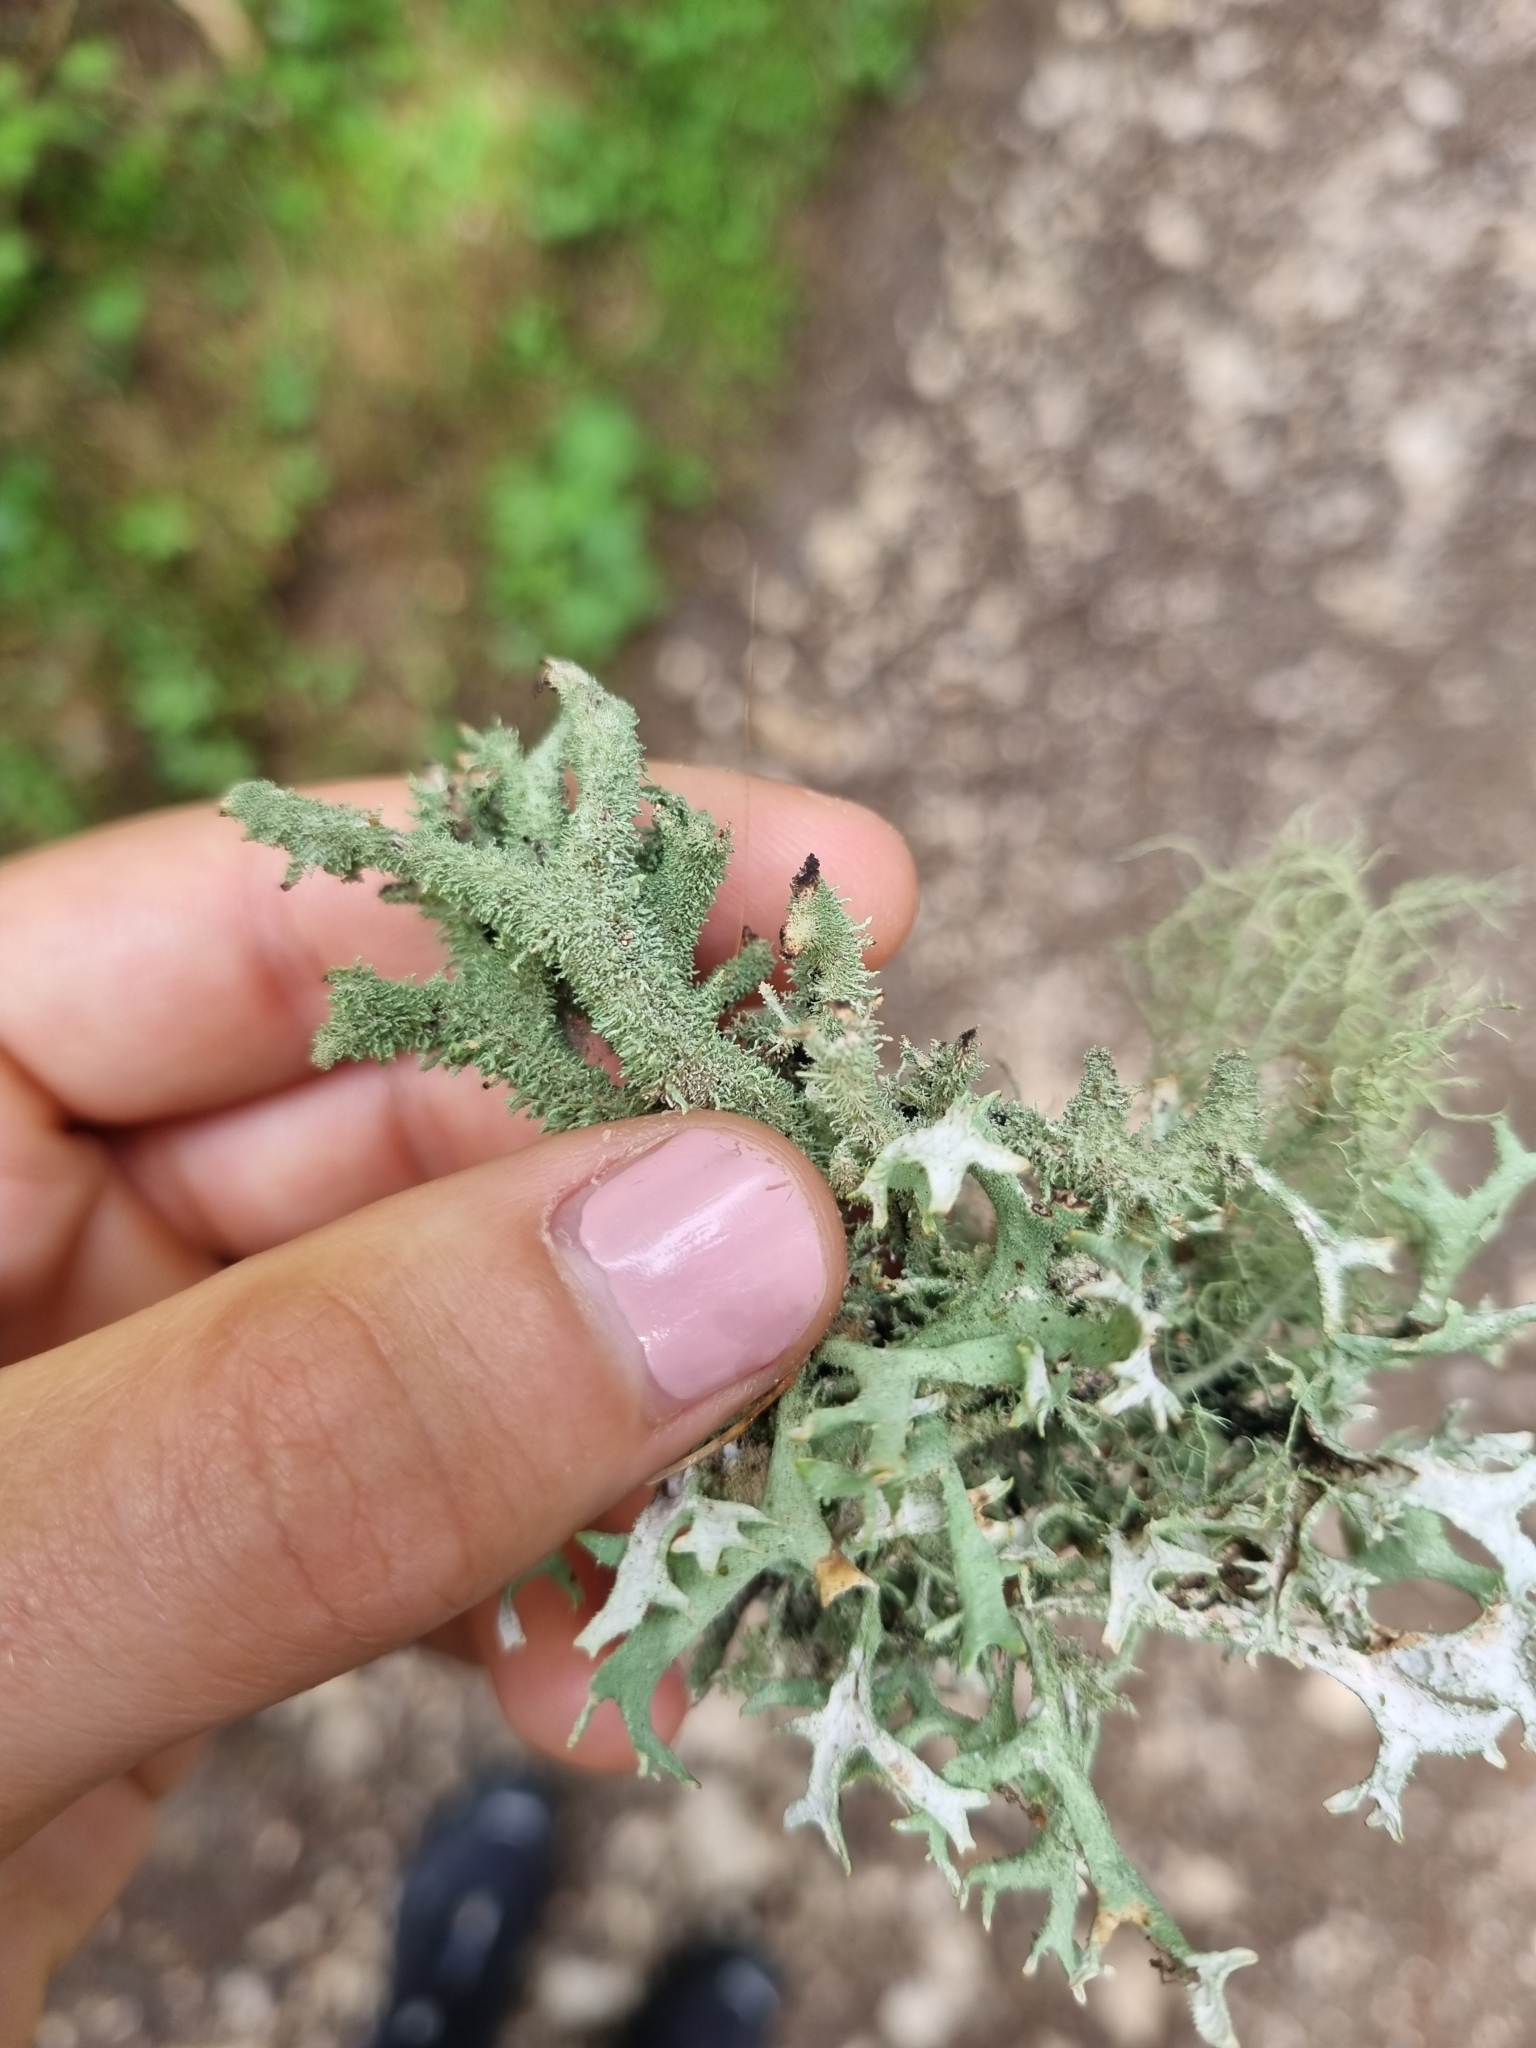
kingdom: Fungi
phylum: Ascomycota
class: Lecanoromycetes
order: Lecanorales
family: Parmeliaceae
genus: Pseudevernia
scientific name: Pseudevernia furfuracea
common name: Tree moss
